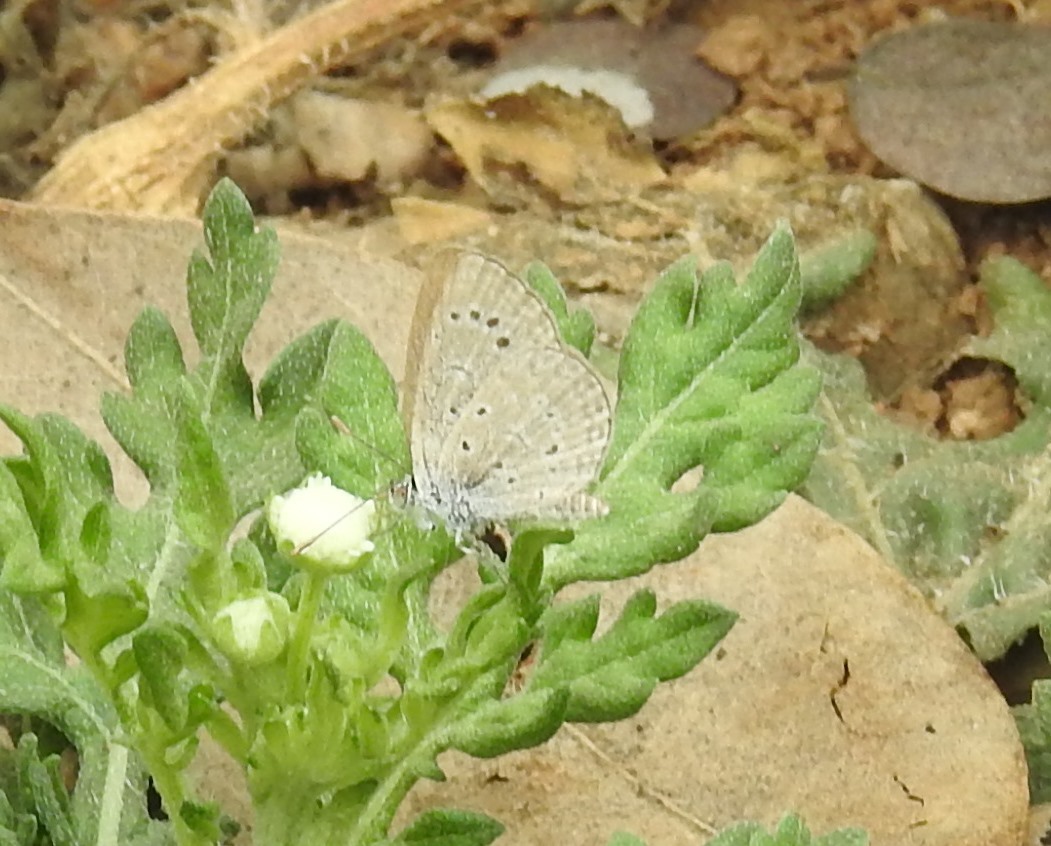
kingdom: Animalia
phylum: Arthropoda
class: Insecta
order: Lepidoptera
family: Lycaenidae
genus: Pseudozizeeria
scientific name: Pseudozizeeria maha
